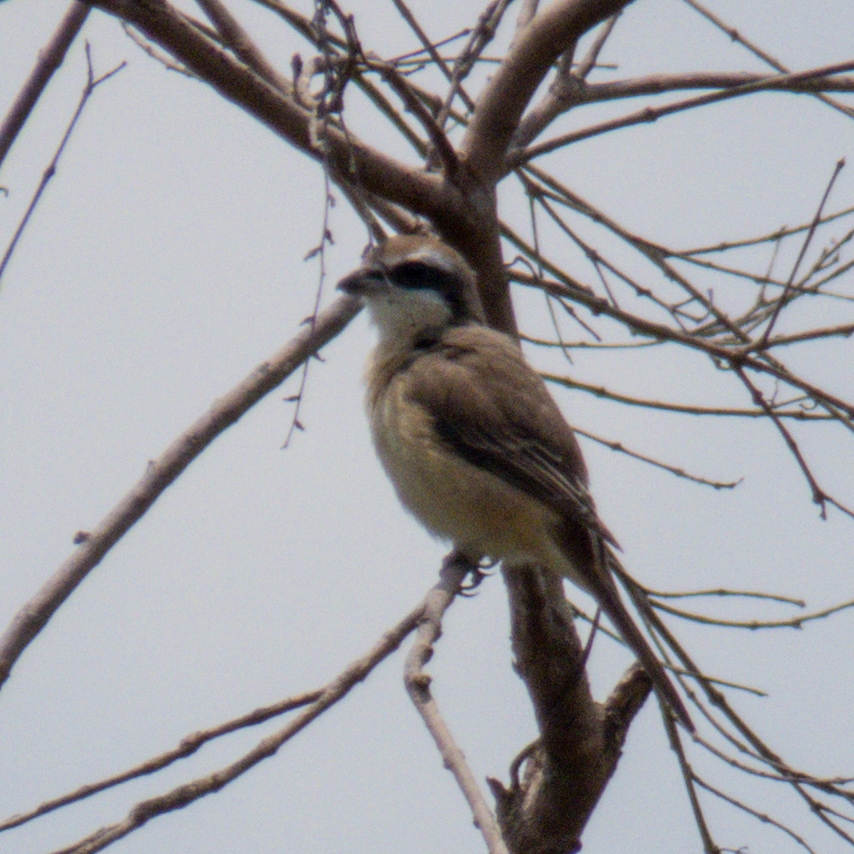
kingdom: Animalia
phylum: Chordata
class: Aves
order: Passeriformes
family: Laniidae
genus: Lanius
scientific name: Lanius cristatus
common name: Brown shrike
